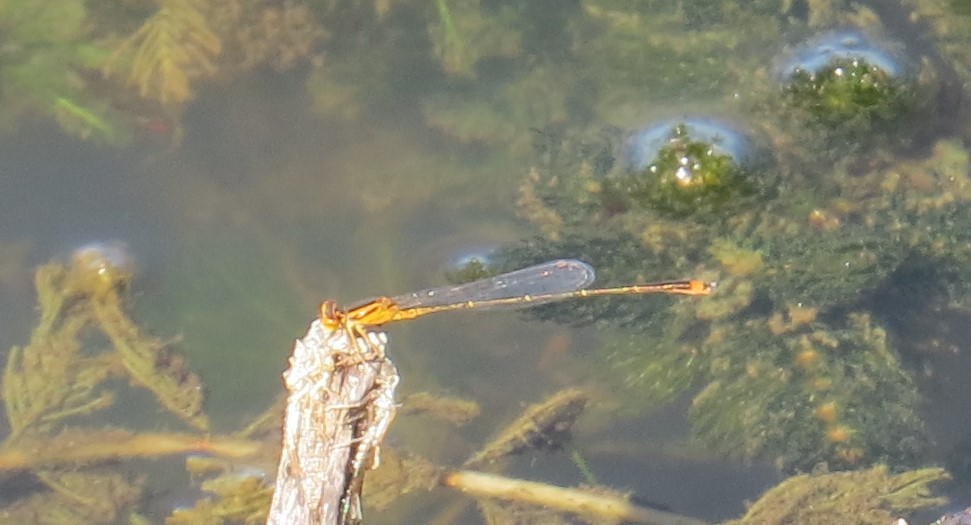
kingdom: Animalia
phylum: Arthropoda
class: Insecta
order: Odonata
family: Coenagrionidae
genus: Enallagma
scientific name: Enallagma signatum
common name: Orange bluet
